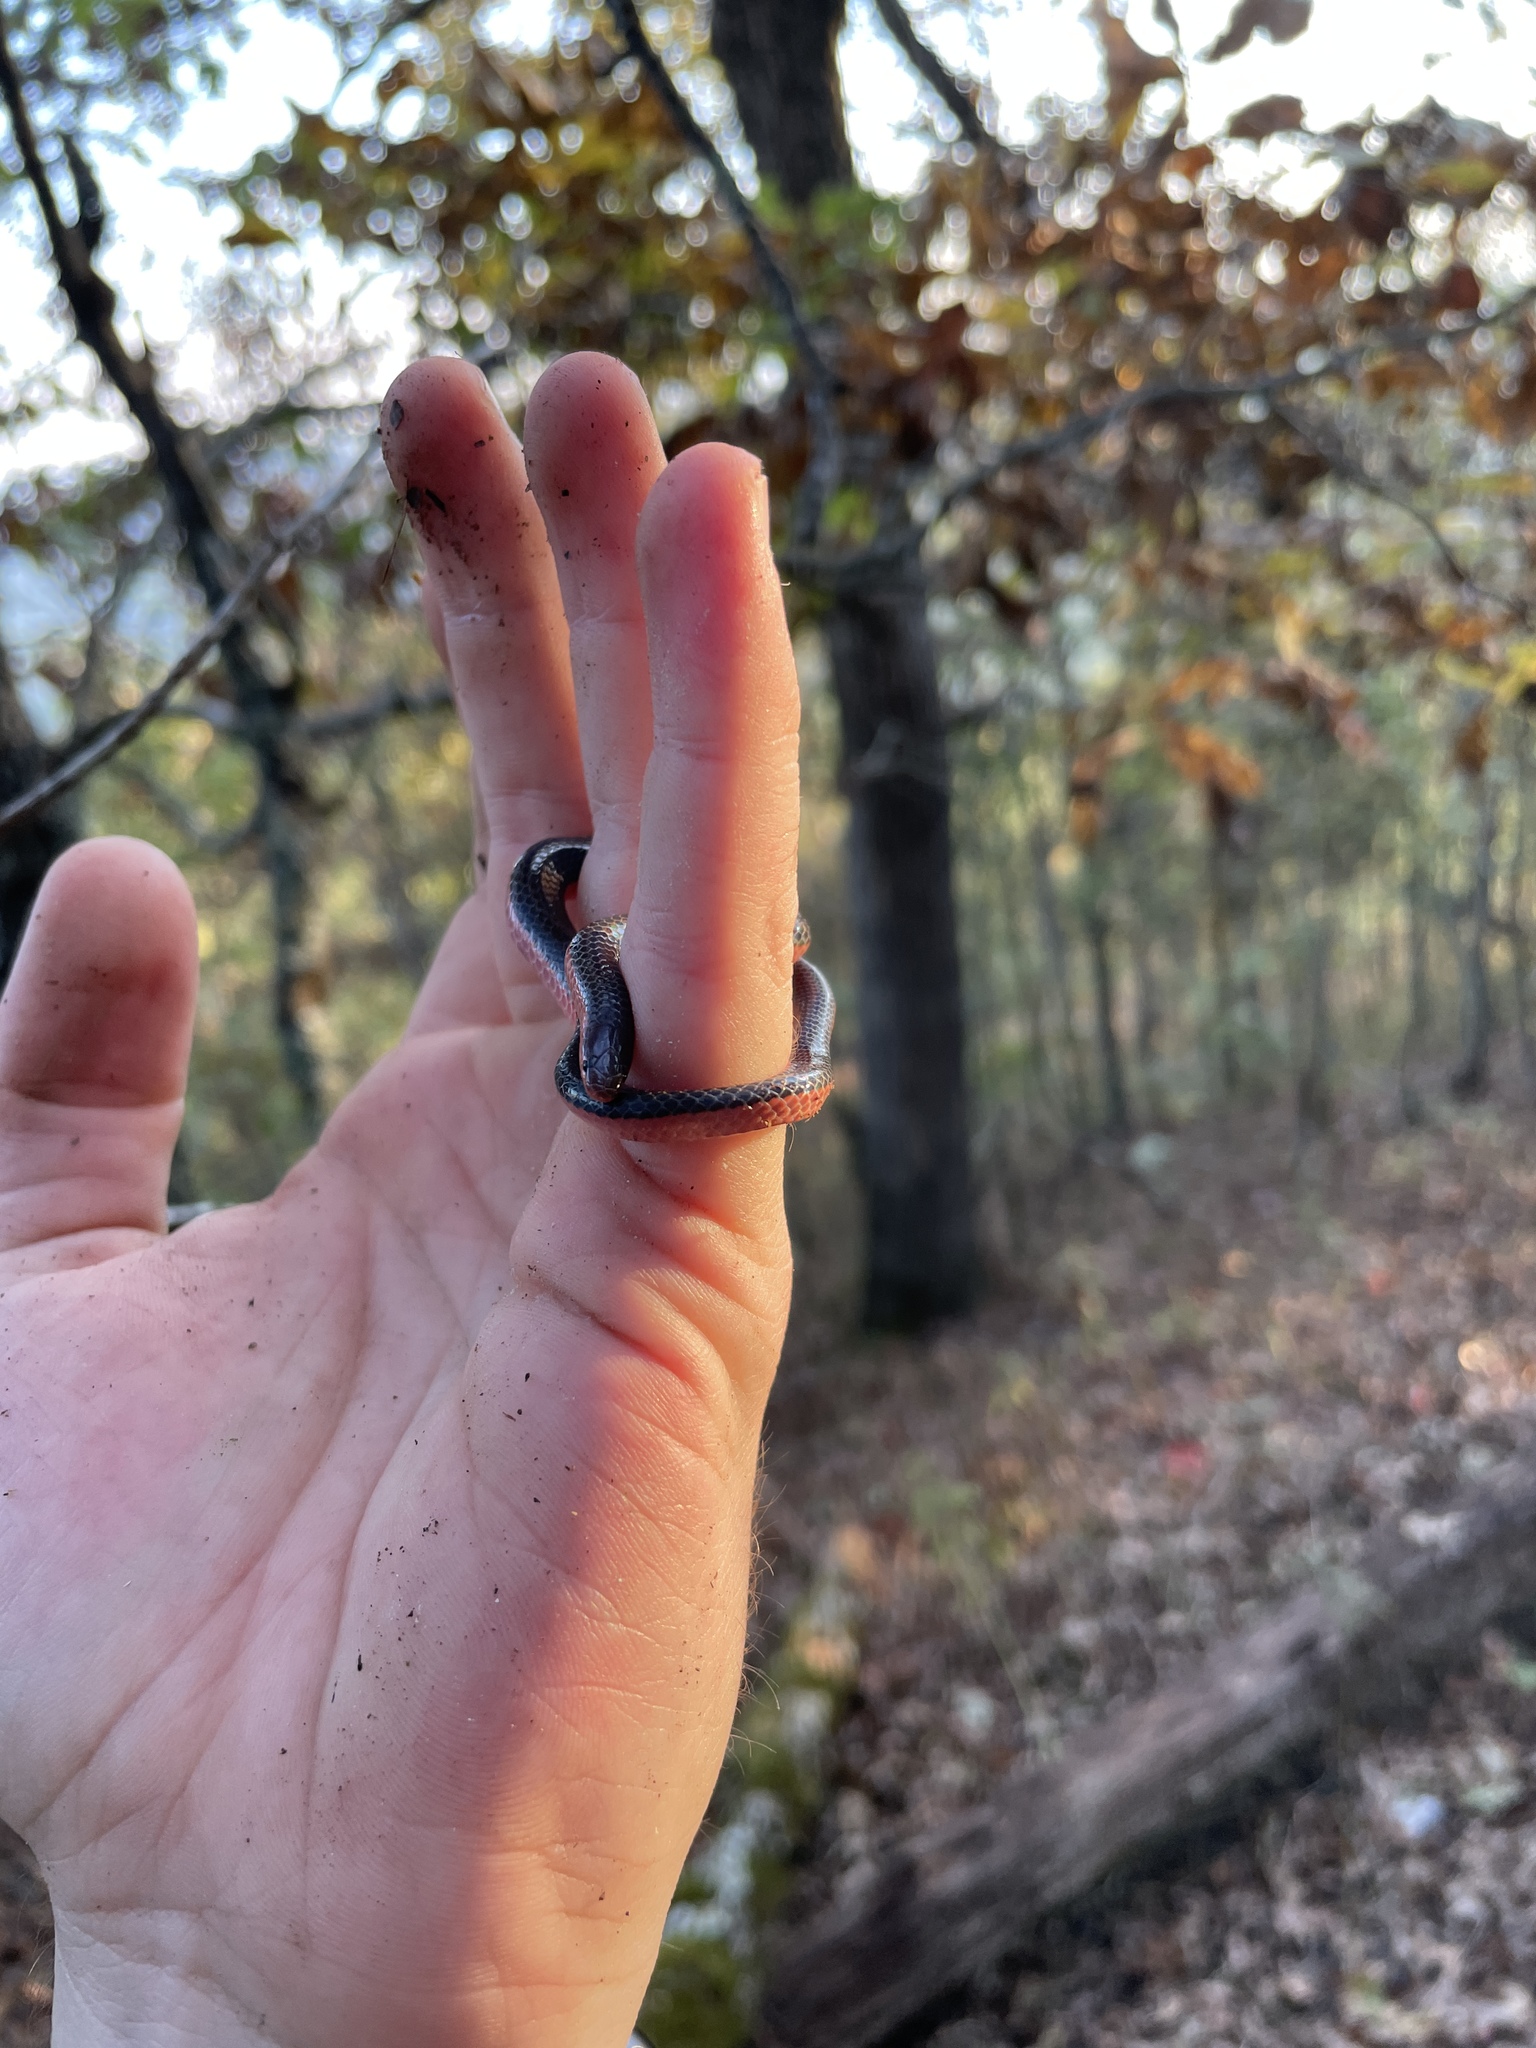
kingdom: Animalia
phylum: Chordata
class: Squamata
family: Colubridae
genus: Carphophis
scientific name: Carphophis vermis
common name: Western worm snake
